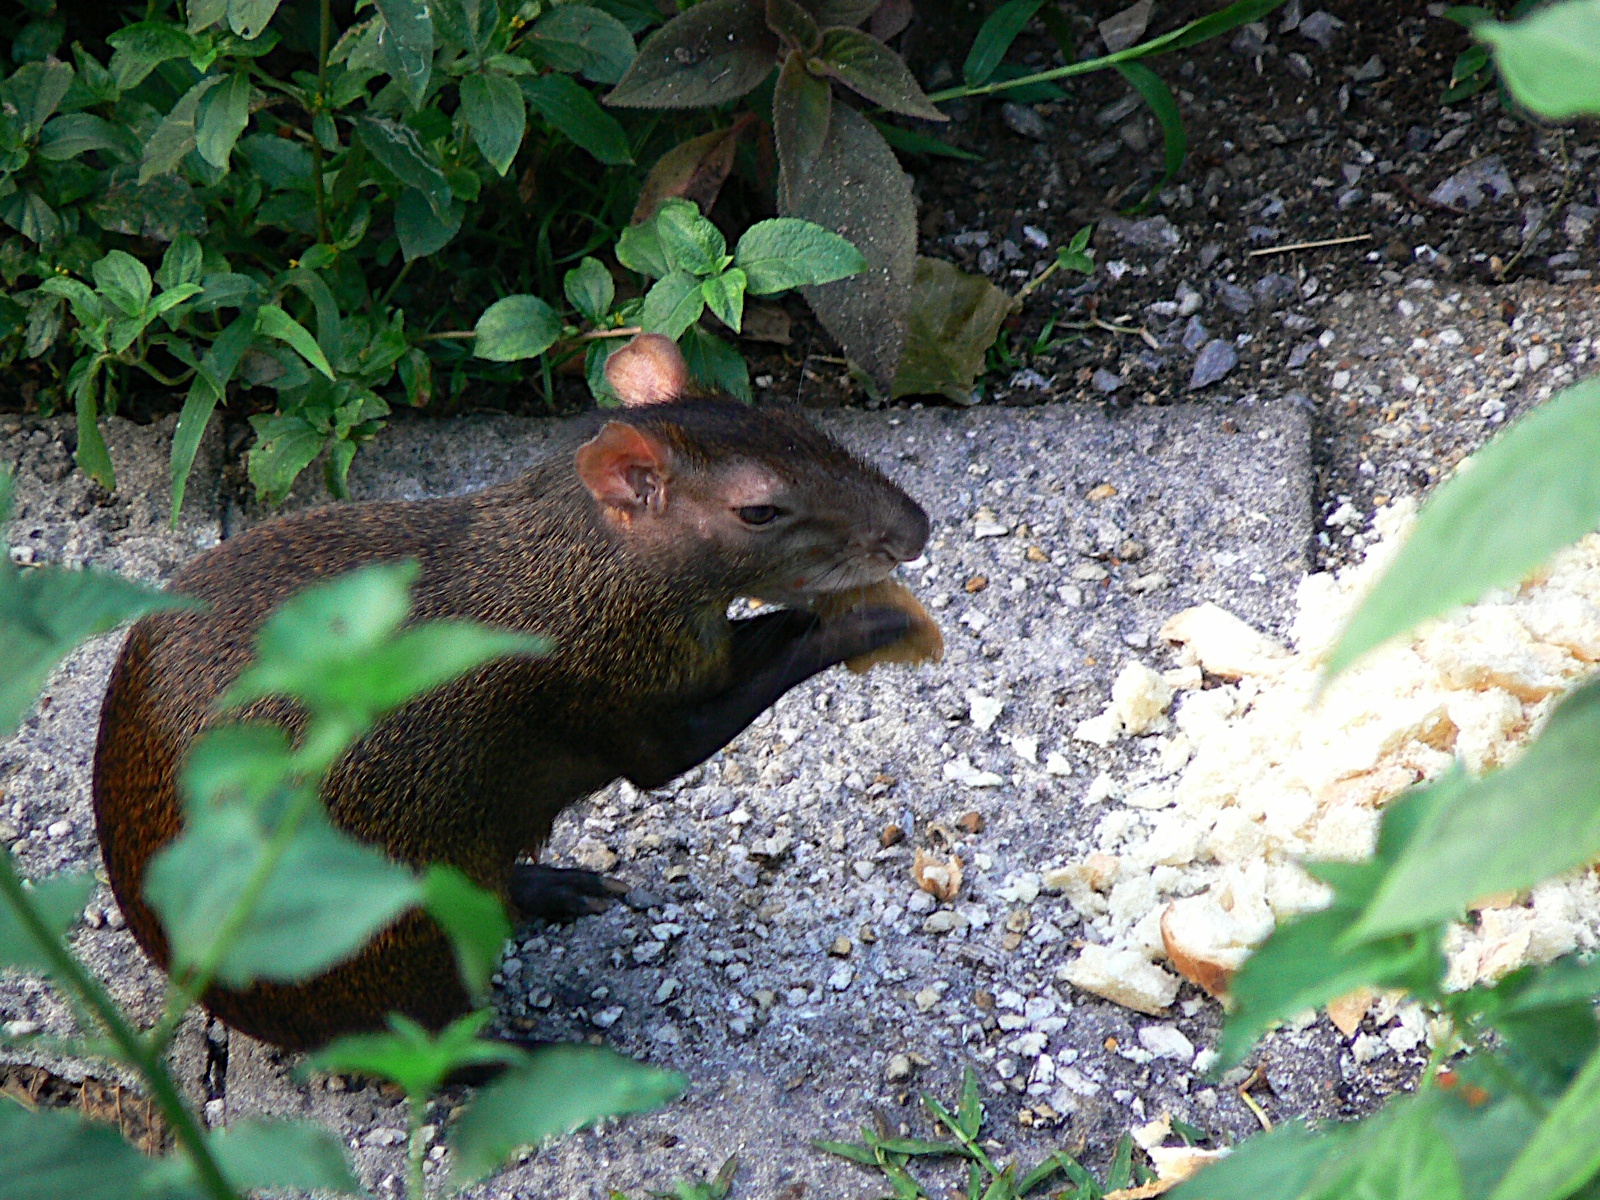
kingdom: Animalia
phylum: Chordata
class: Mammalia
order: Rodentia
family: Dasyproctidae
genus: Dasyprocta
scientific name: Dasyprocta leporina
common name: Red-rumped agouti
